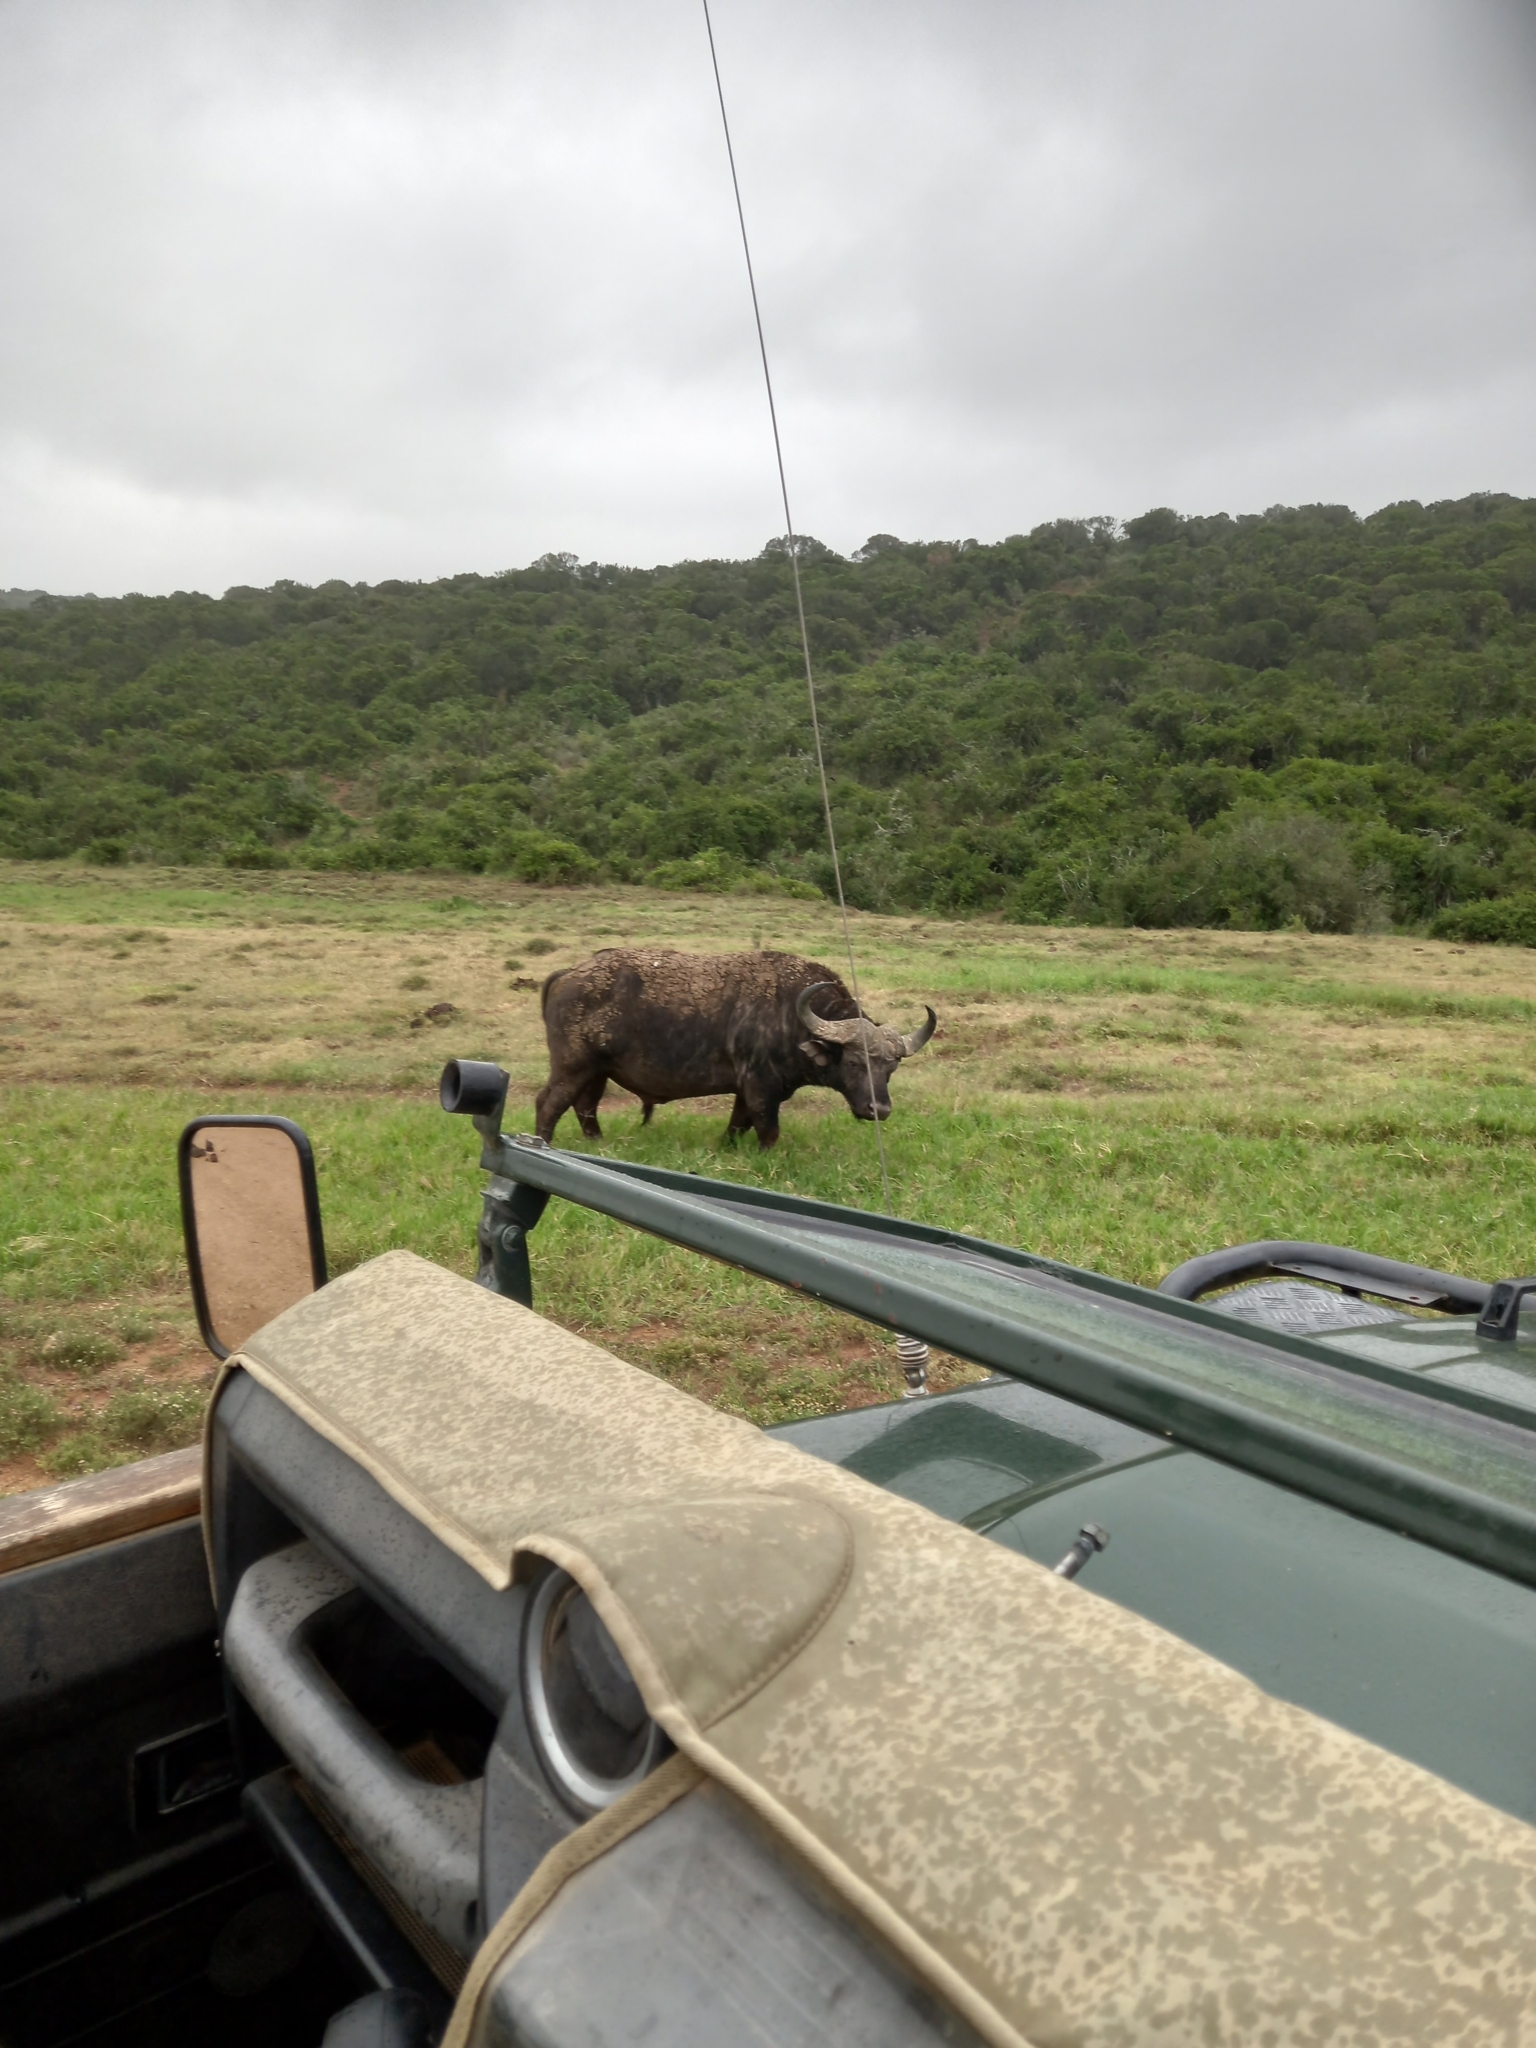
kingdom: Animalia
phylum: Chordata
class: Mammalia
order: Artiodactyla
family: Bovidae
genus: Syncerus
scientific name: Syncerus caffer
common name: African buffalo
